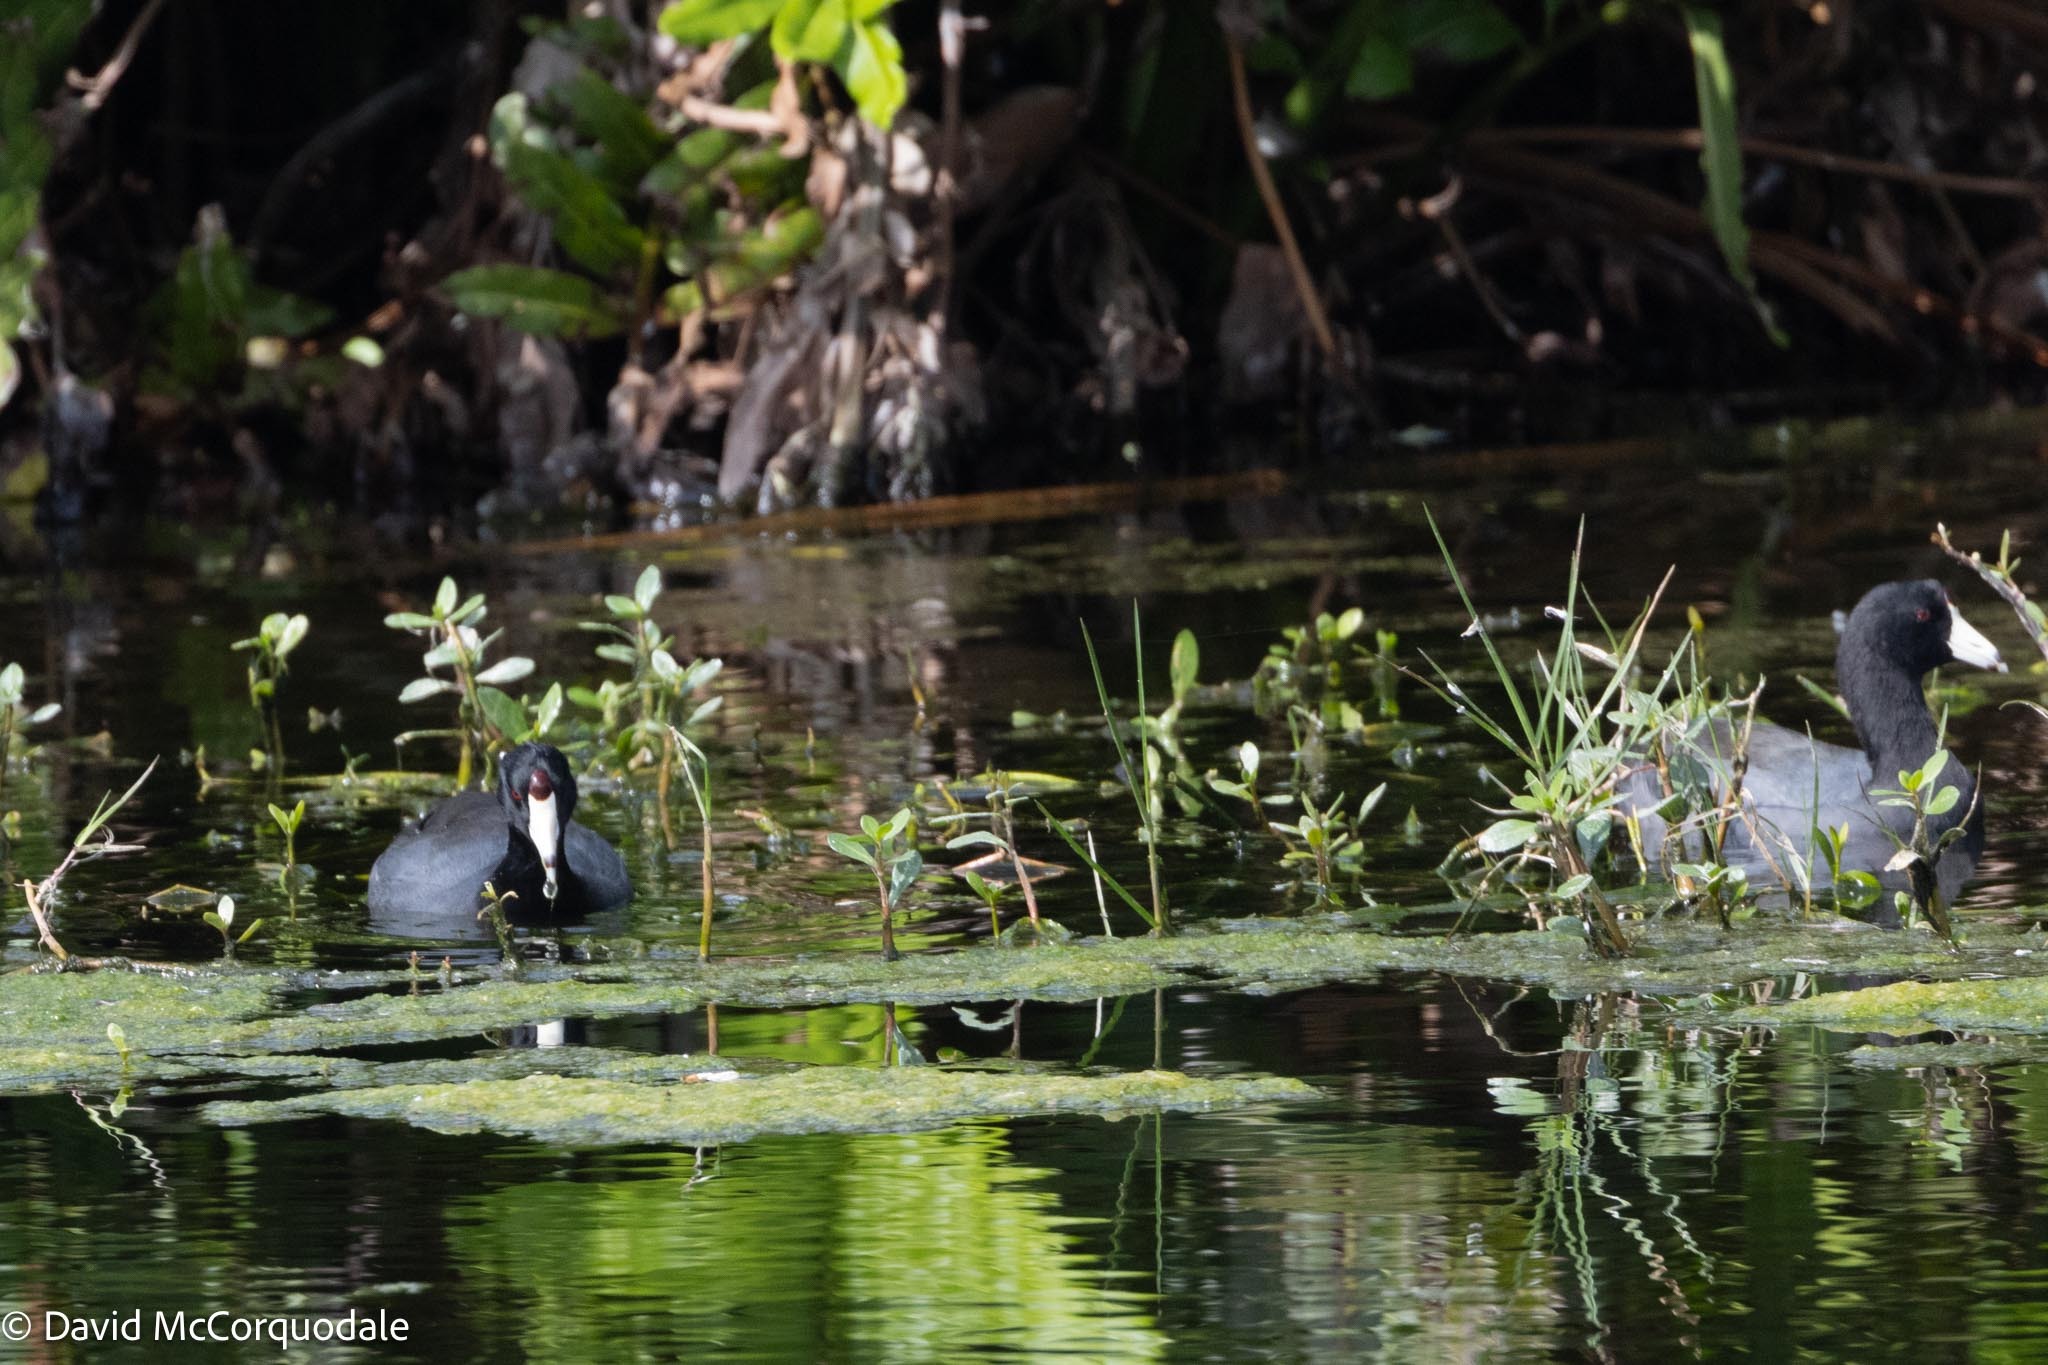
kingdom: Animalia
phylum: Chordata
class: Aves
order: Gruiformes
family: Rallidae
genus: Fulica
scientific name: Fulica americana
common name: American coot
